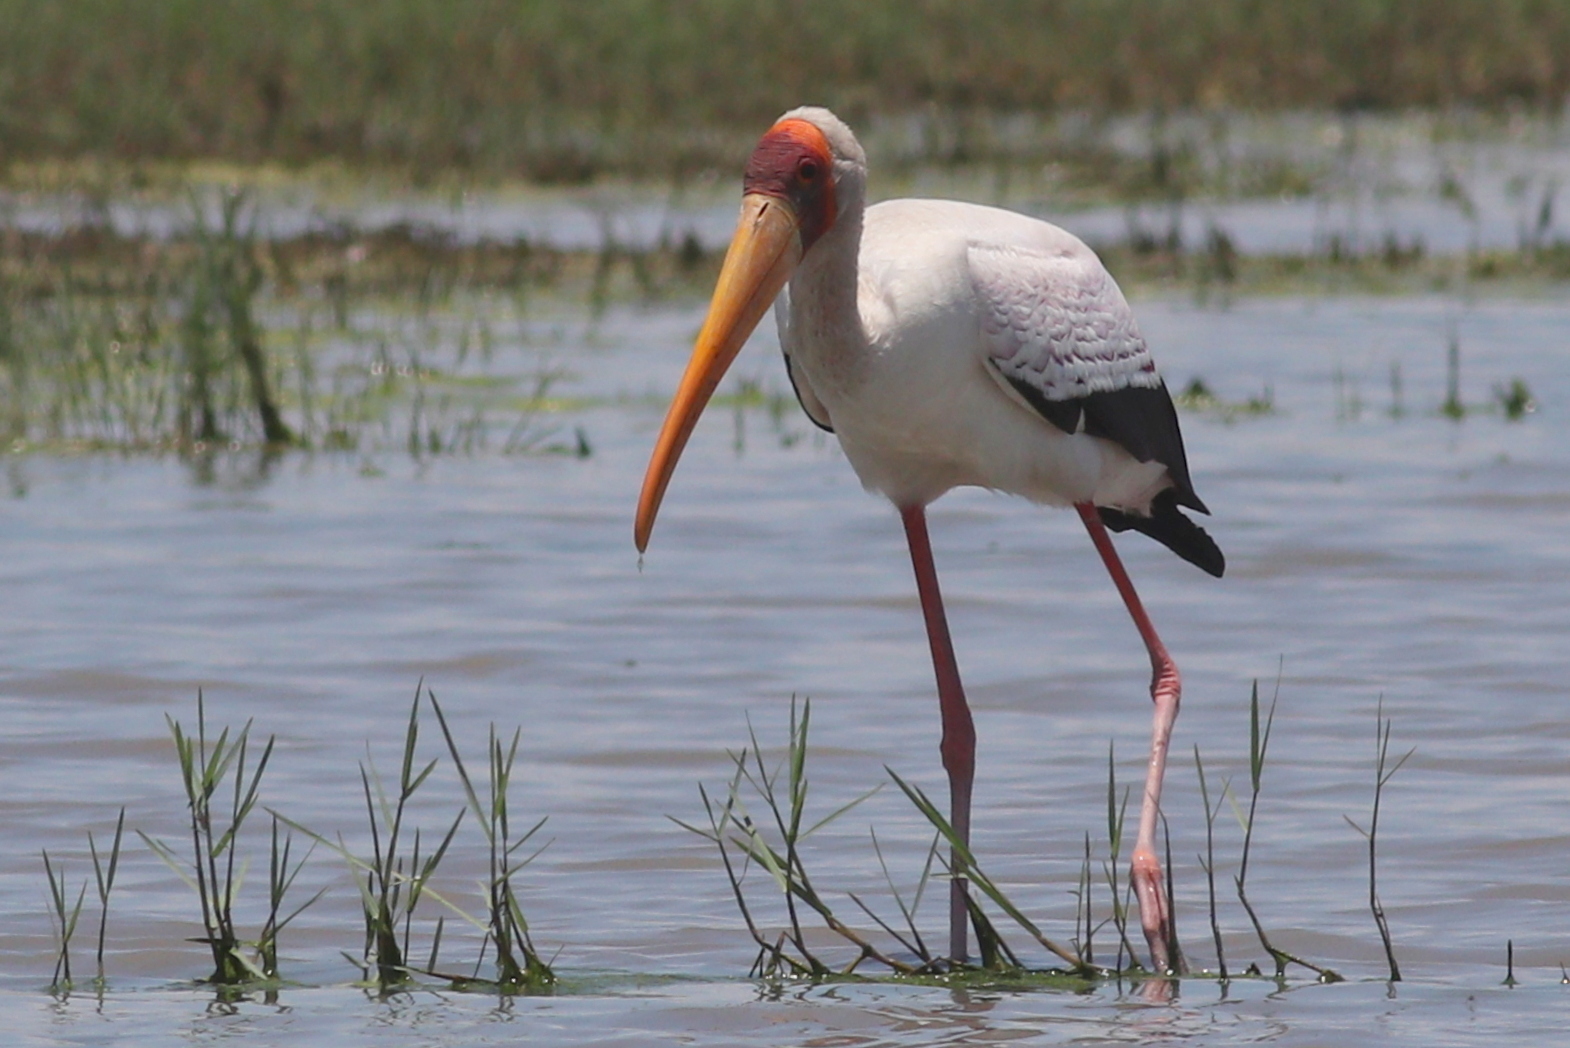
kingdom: Animalia
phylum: Chordata
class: Aves
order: Ciconiiformes
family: Ciconiidae
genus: Mycteria
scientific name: Mycteria ibis
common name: Yellow-billed stork
